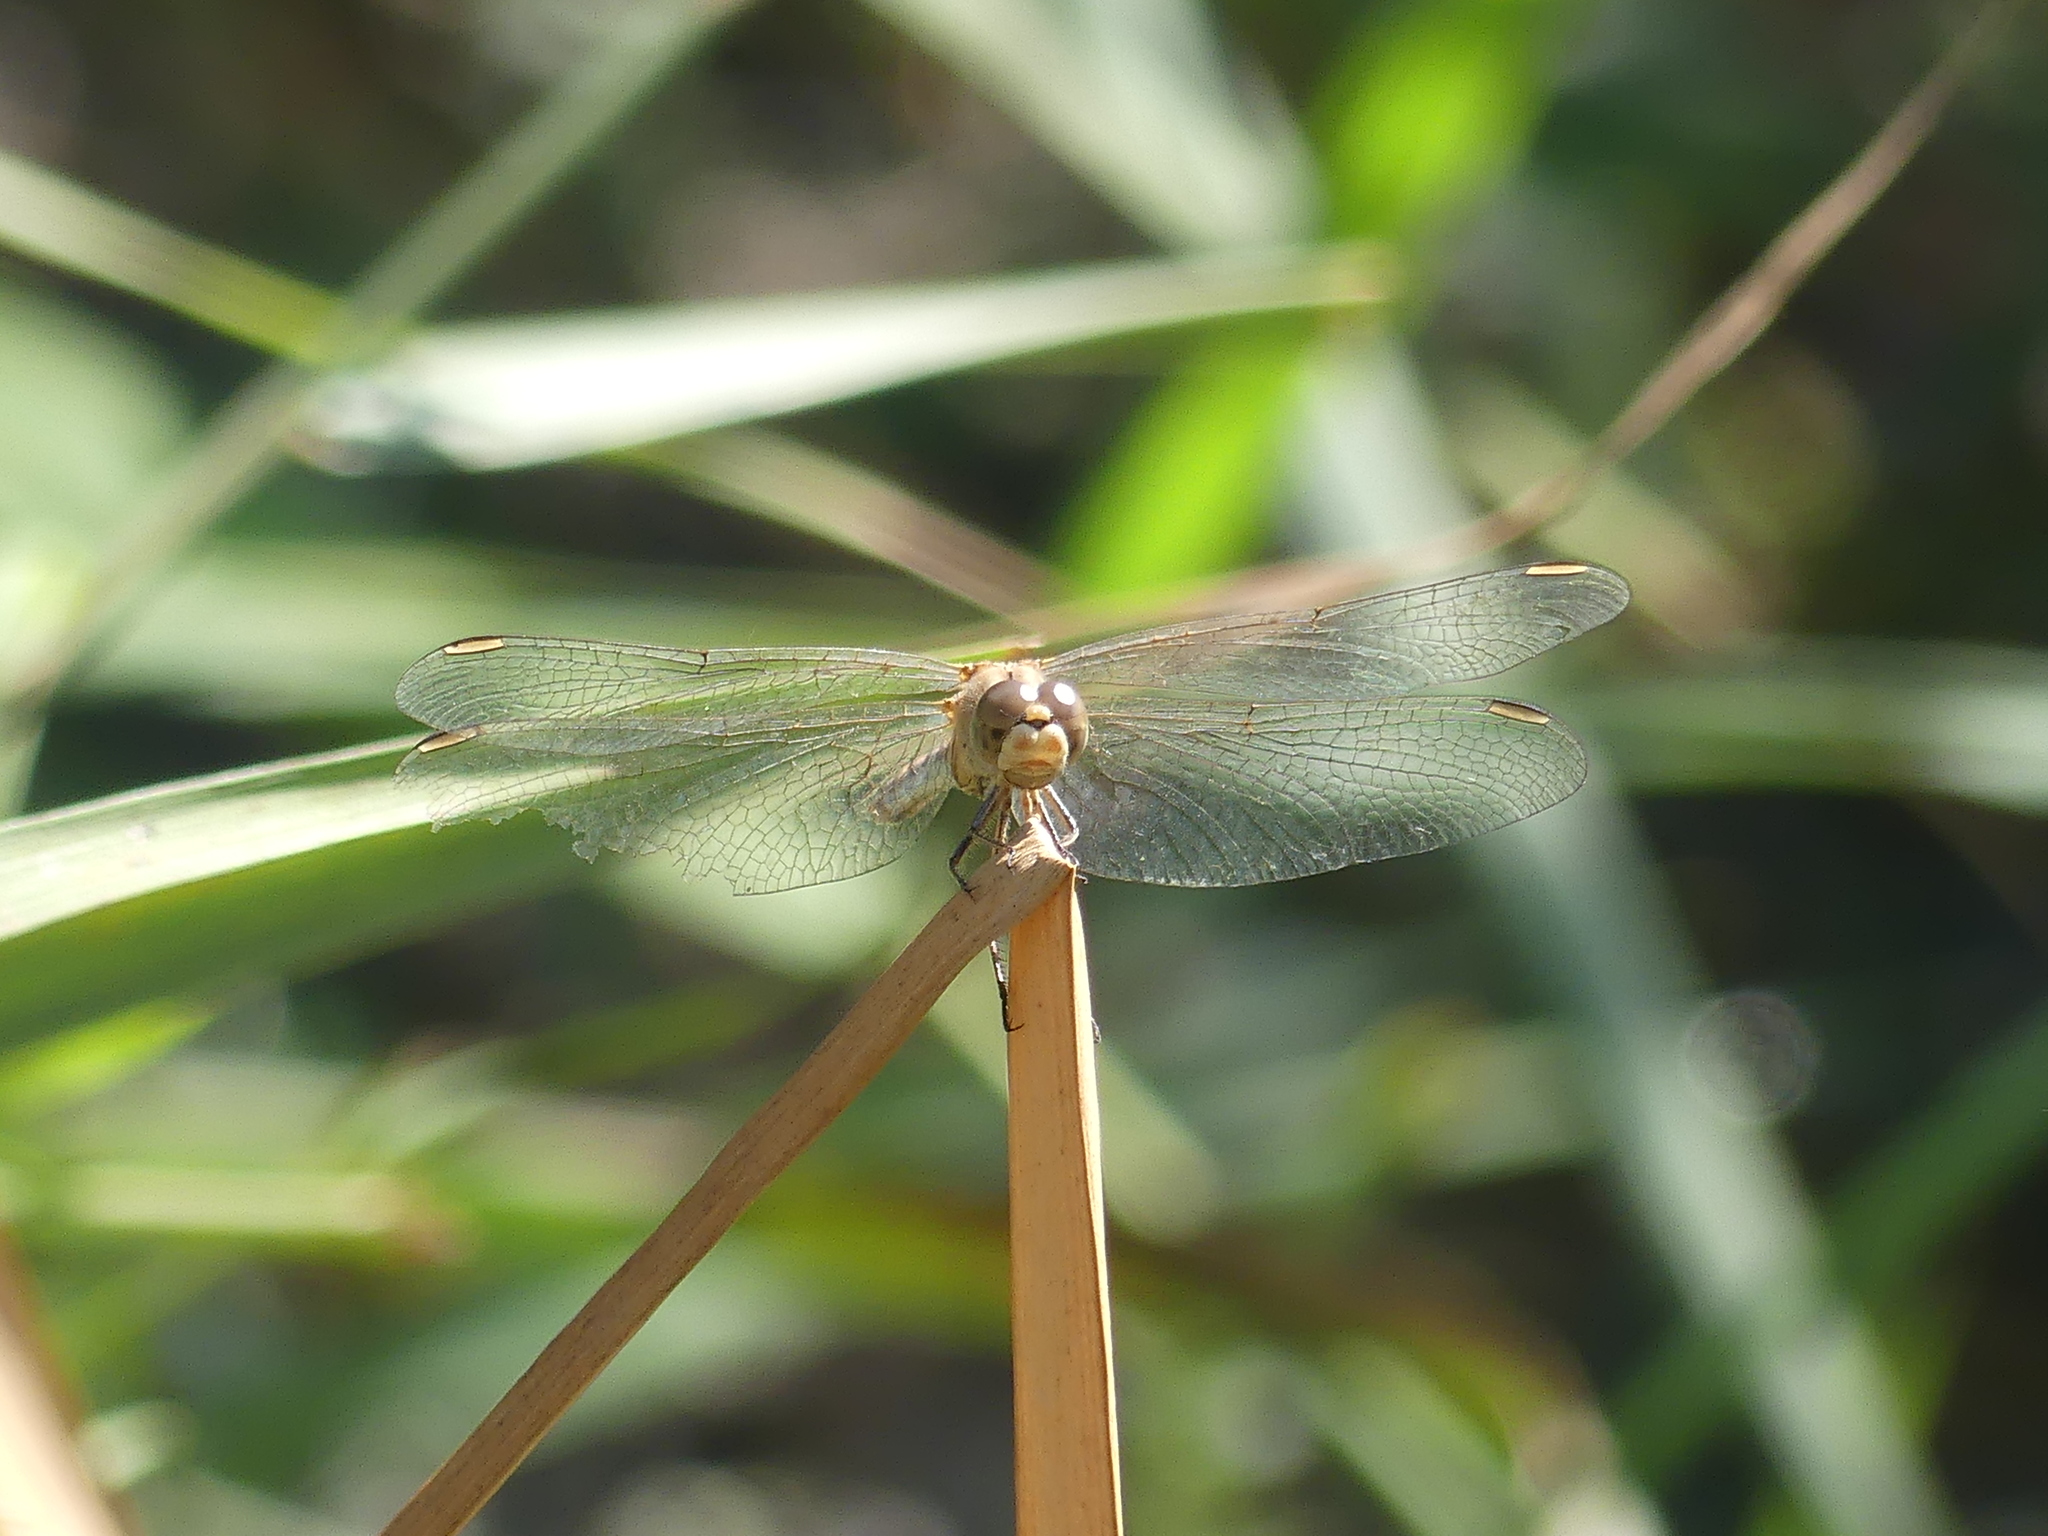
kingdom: Animalia
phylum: Arthropoda
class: Insecta
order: Odonata
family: Libellulidae
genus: Sympetrum
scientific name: Sympetrum meridionale
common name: Southern darter
